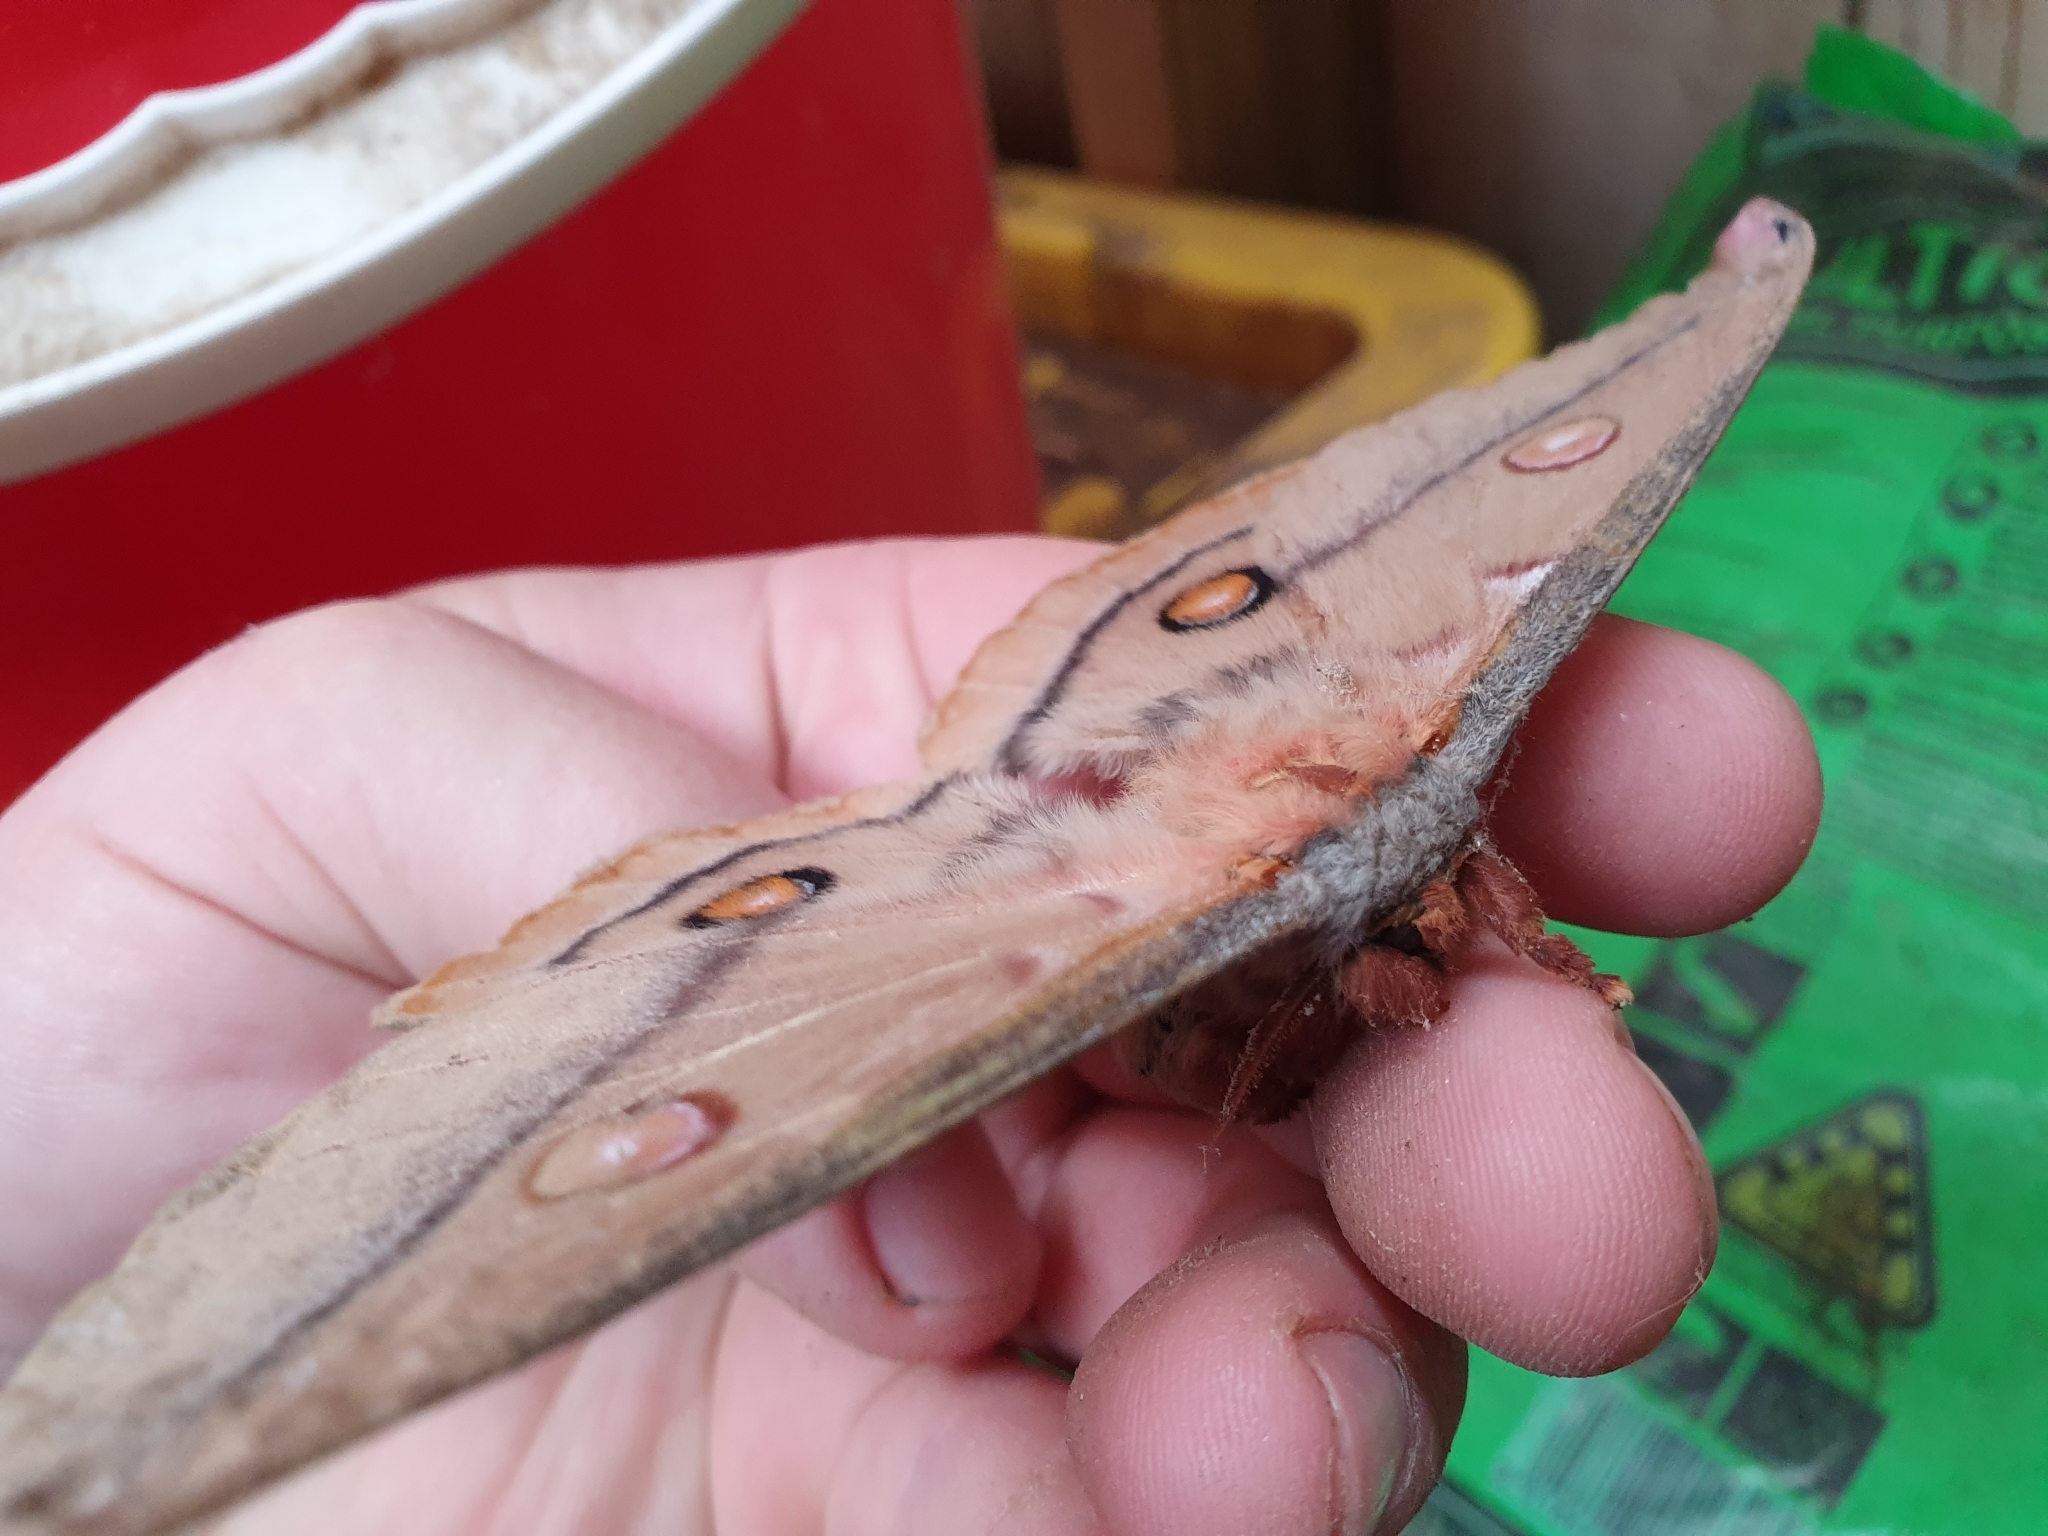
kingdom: Animalia
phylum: Arthropoda
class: Insecta
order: Lepidoptera
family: Saturniidae
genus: Opodiphthera
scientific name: Opodiphthera
